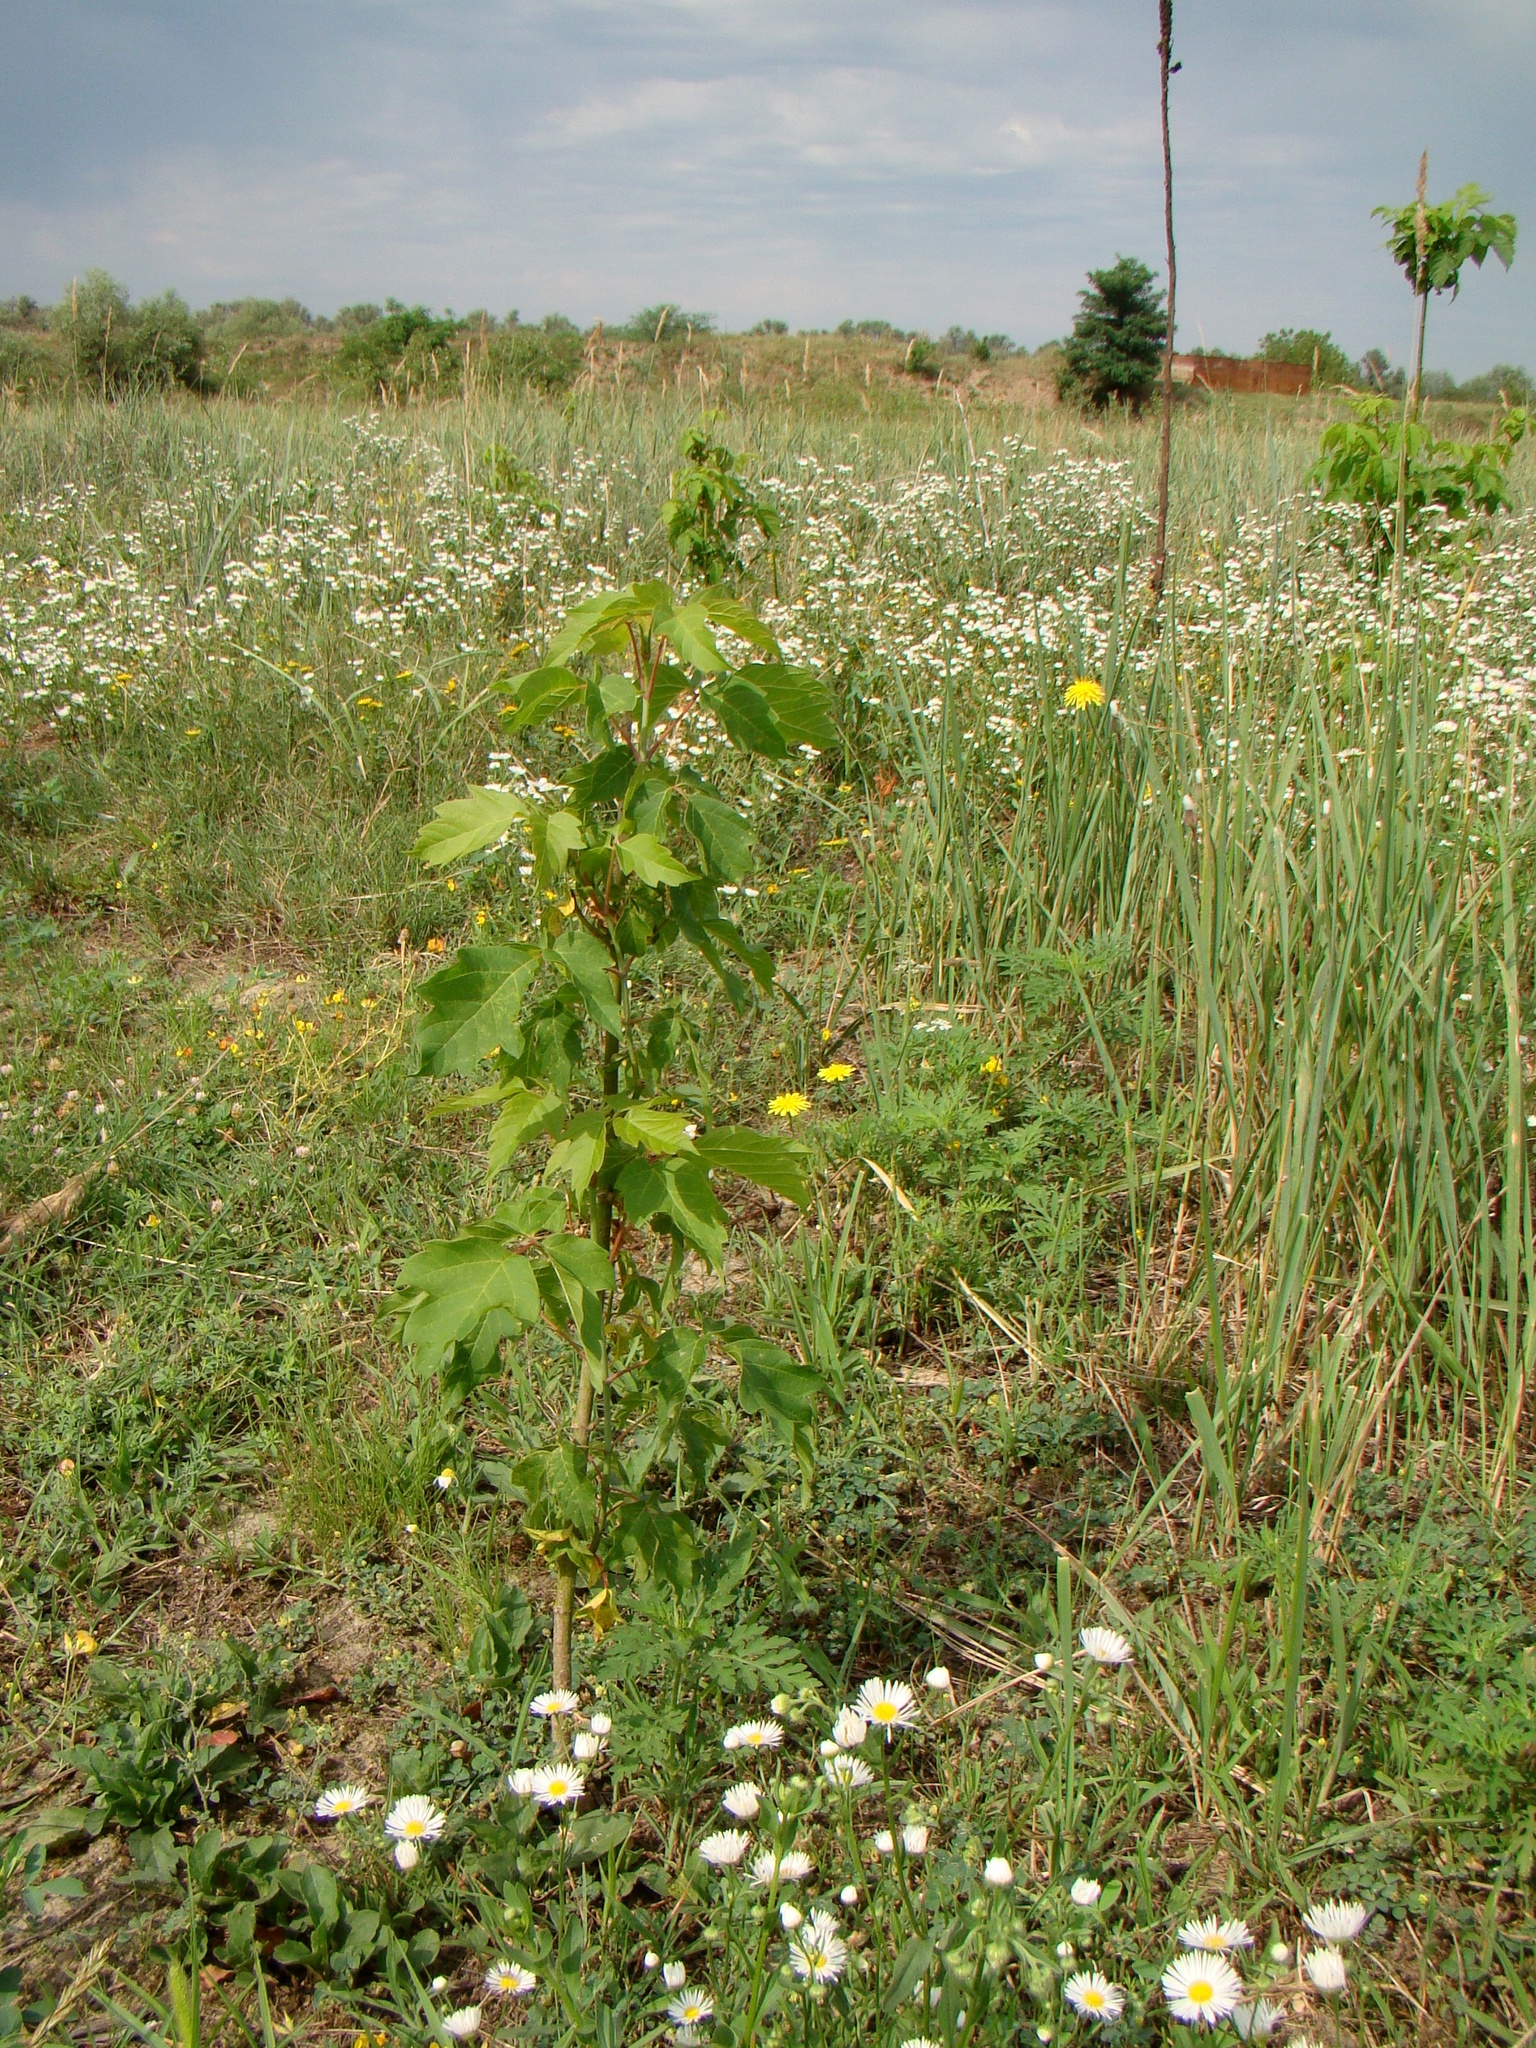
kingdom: Plantae
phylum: Tracheophyta
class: Magnoliopsida
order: Sapindales
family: Sapindaceae
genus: Acer
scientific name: Acer negundo
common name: Ashleaf maple
